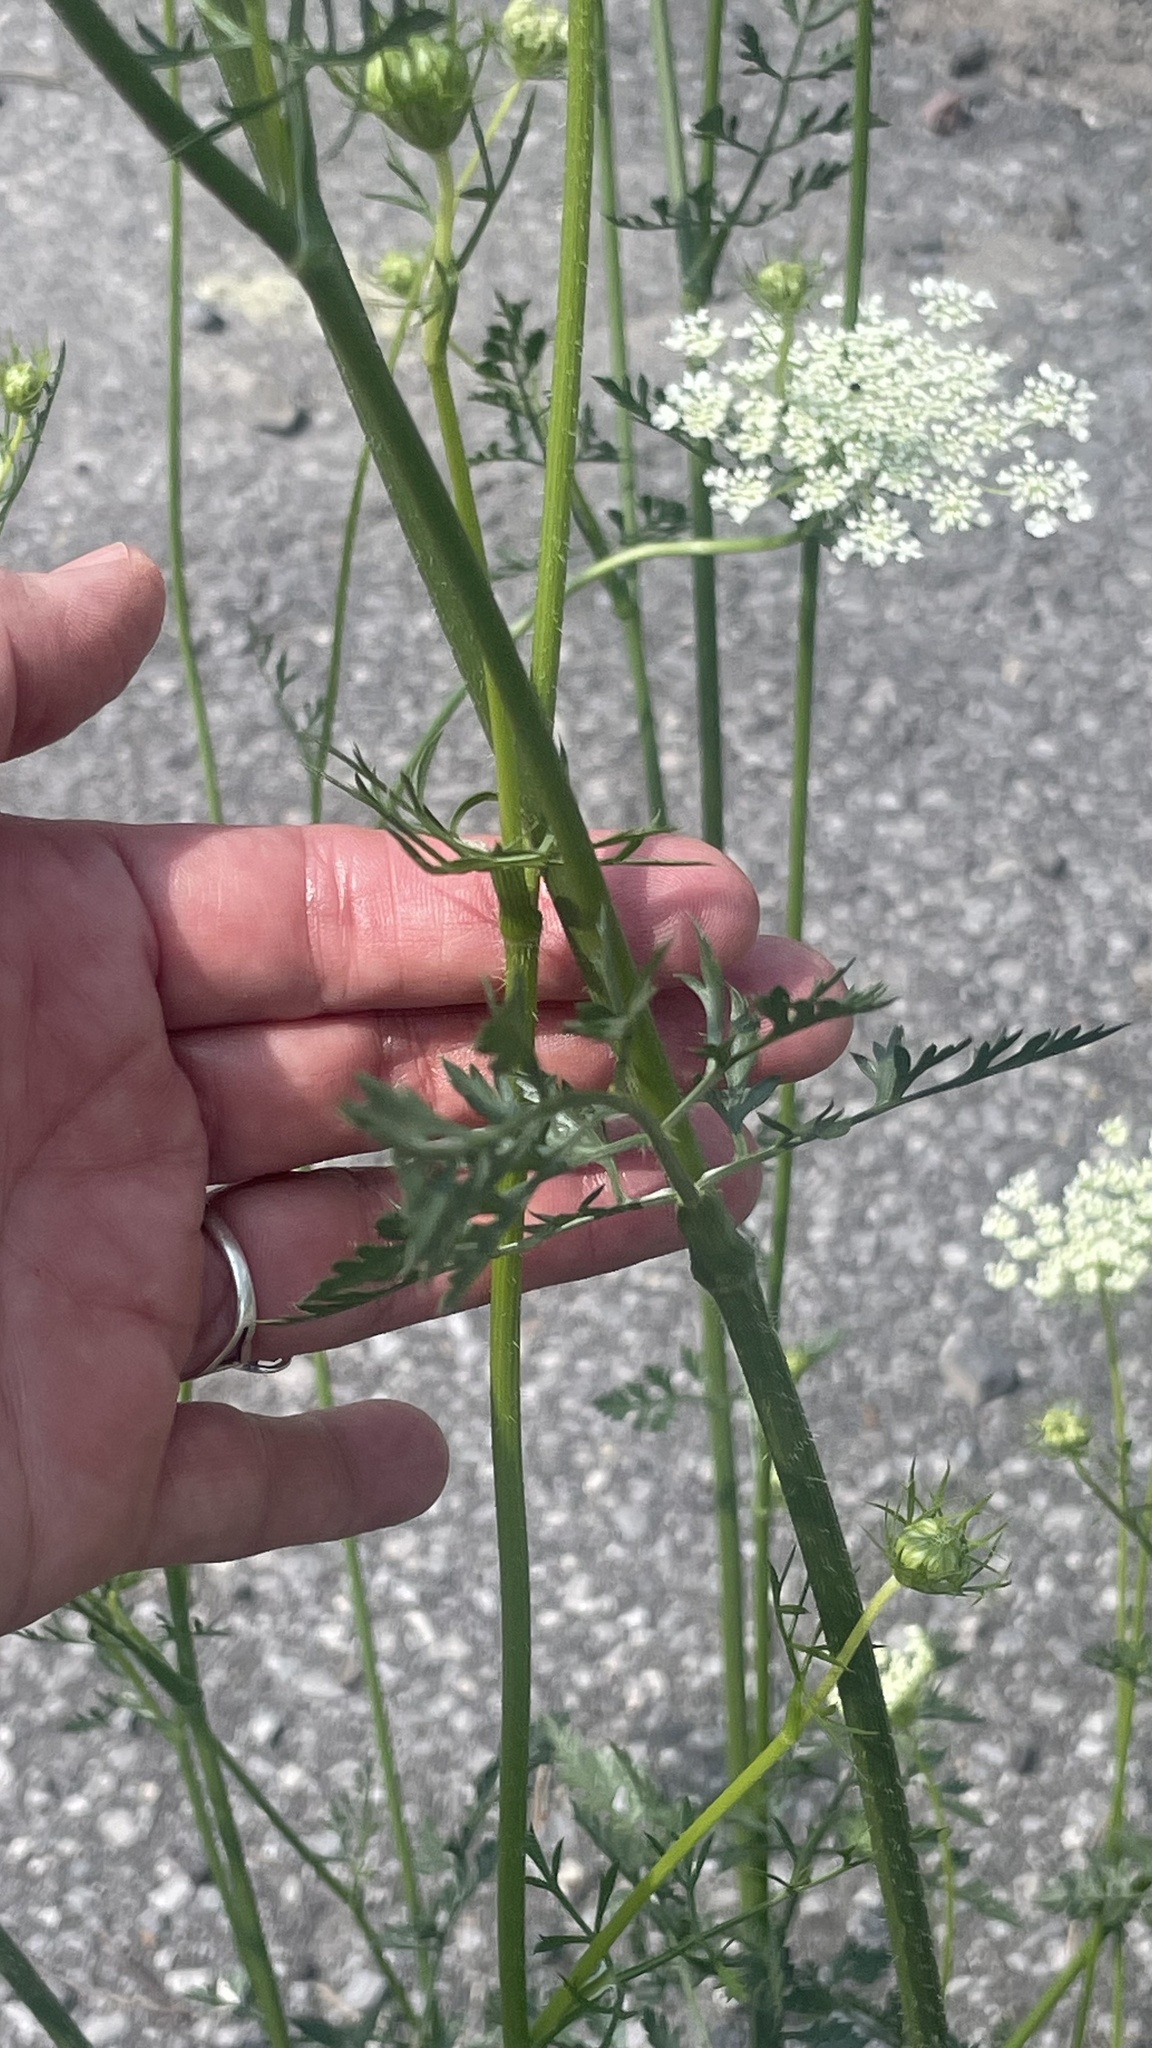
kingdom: Plantae
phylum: Tracheophyta
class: Magnoliopsida
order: Apiales
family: Apiaceae
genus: Daucus
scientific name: Daucus carota
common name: Wild carrot
